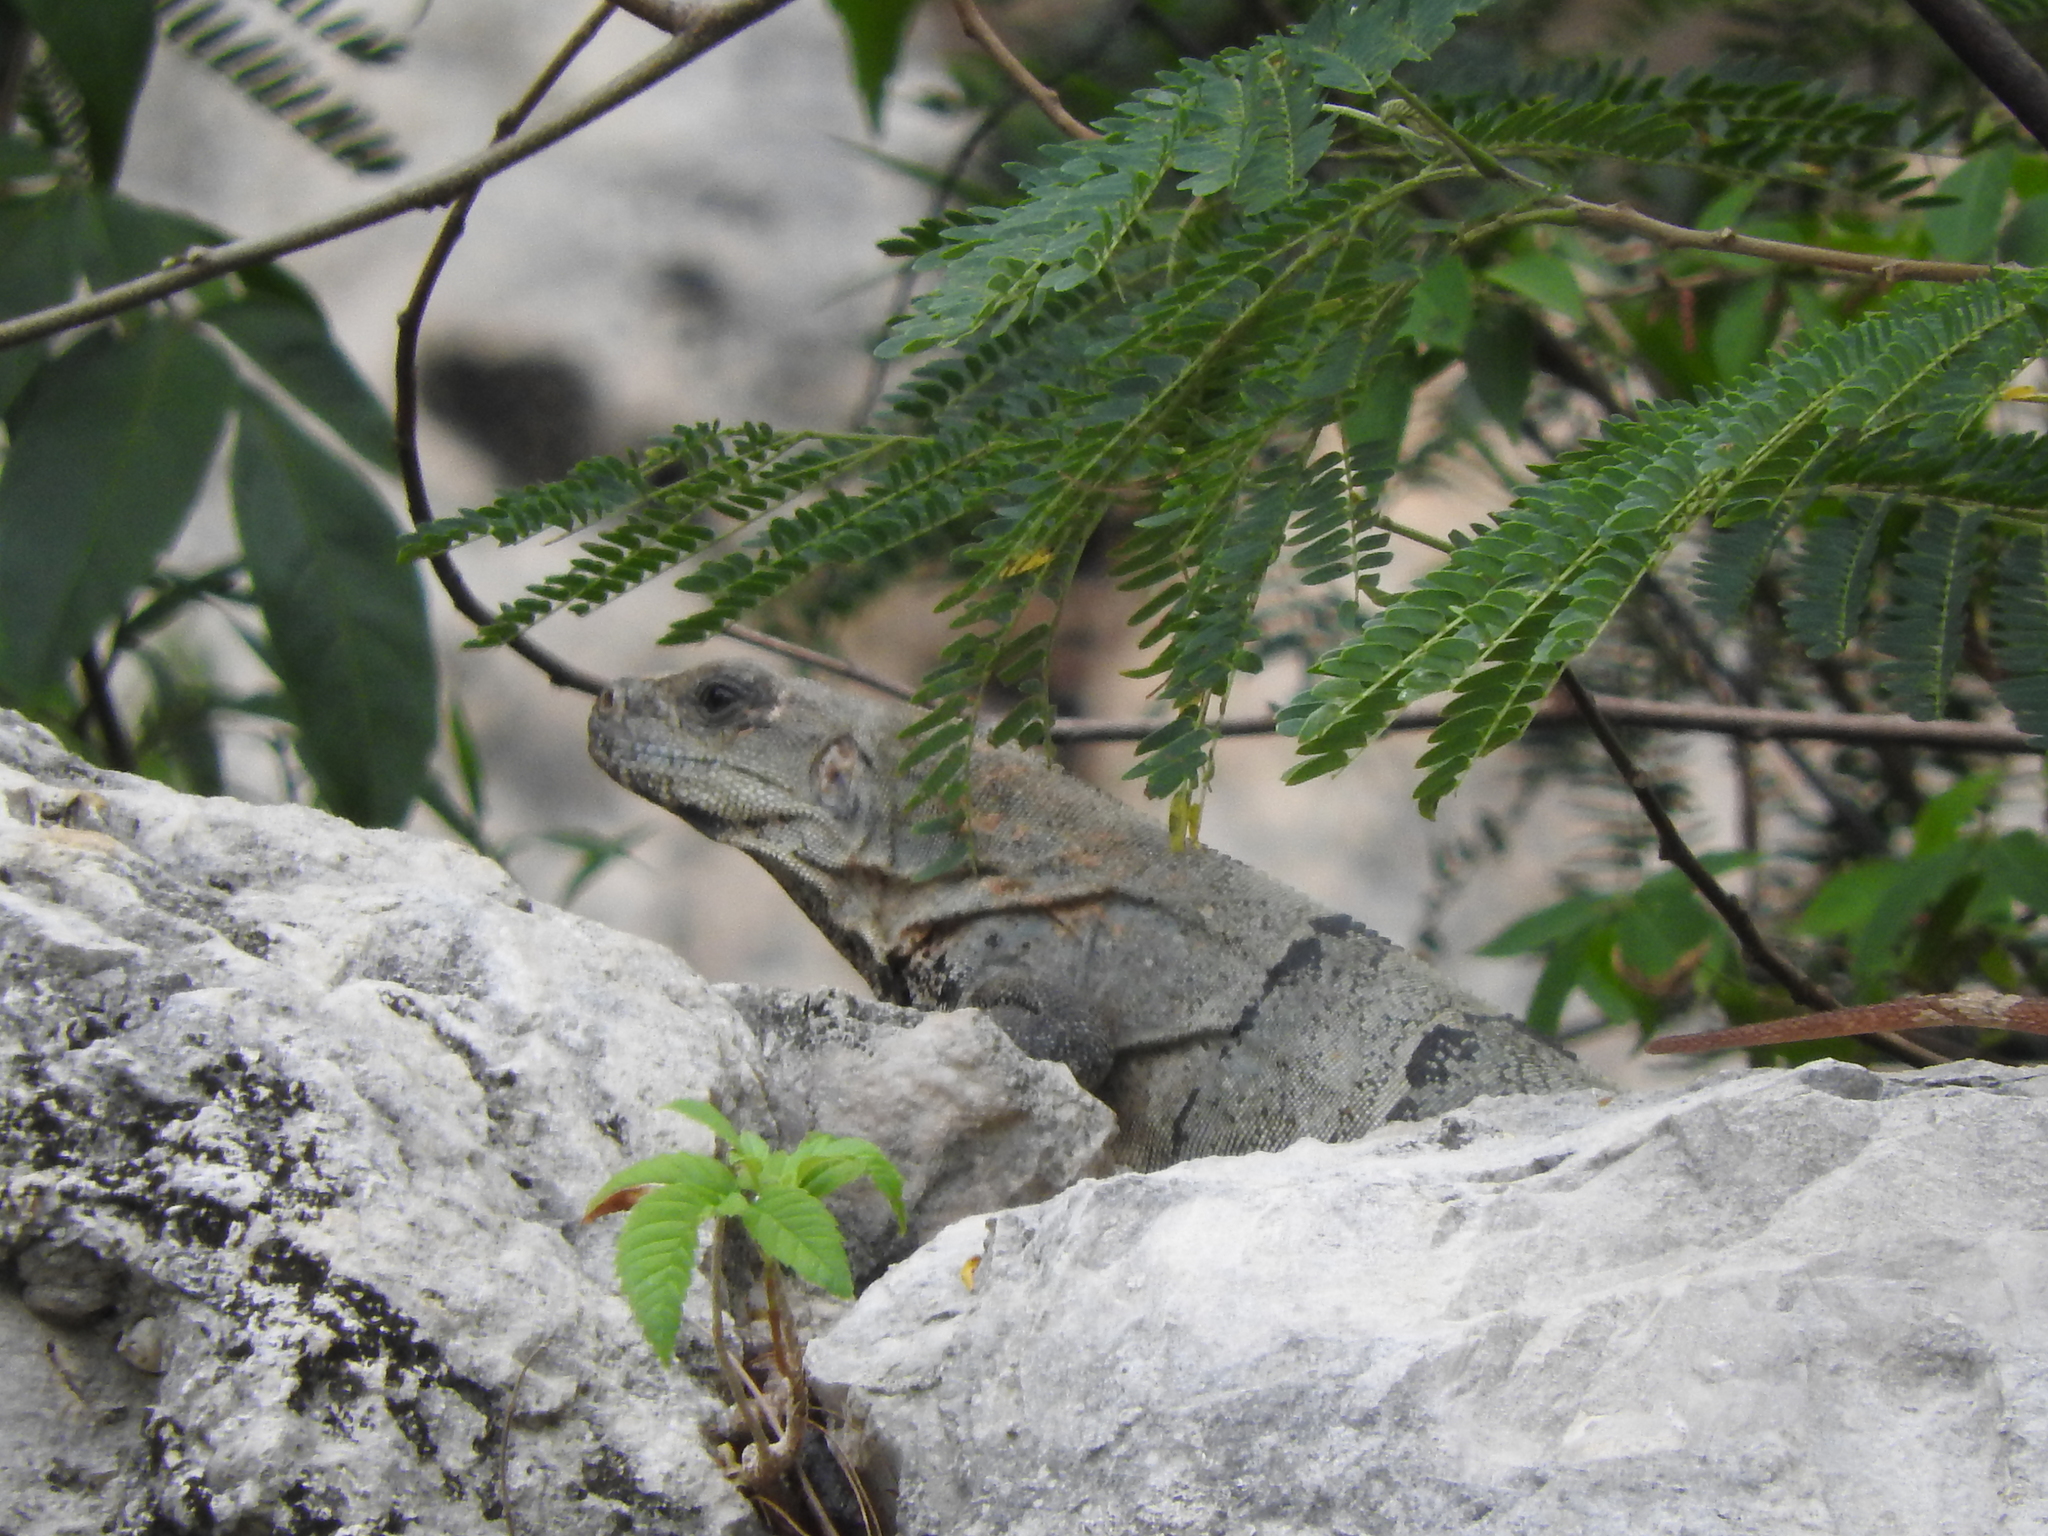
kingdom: Animalia
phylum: Chordata
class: Squamata
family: Iguanidae
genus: Ctenosaura
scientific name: Ctenosaura similis
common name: Black spiny-tailed iguana
